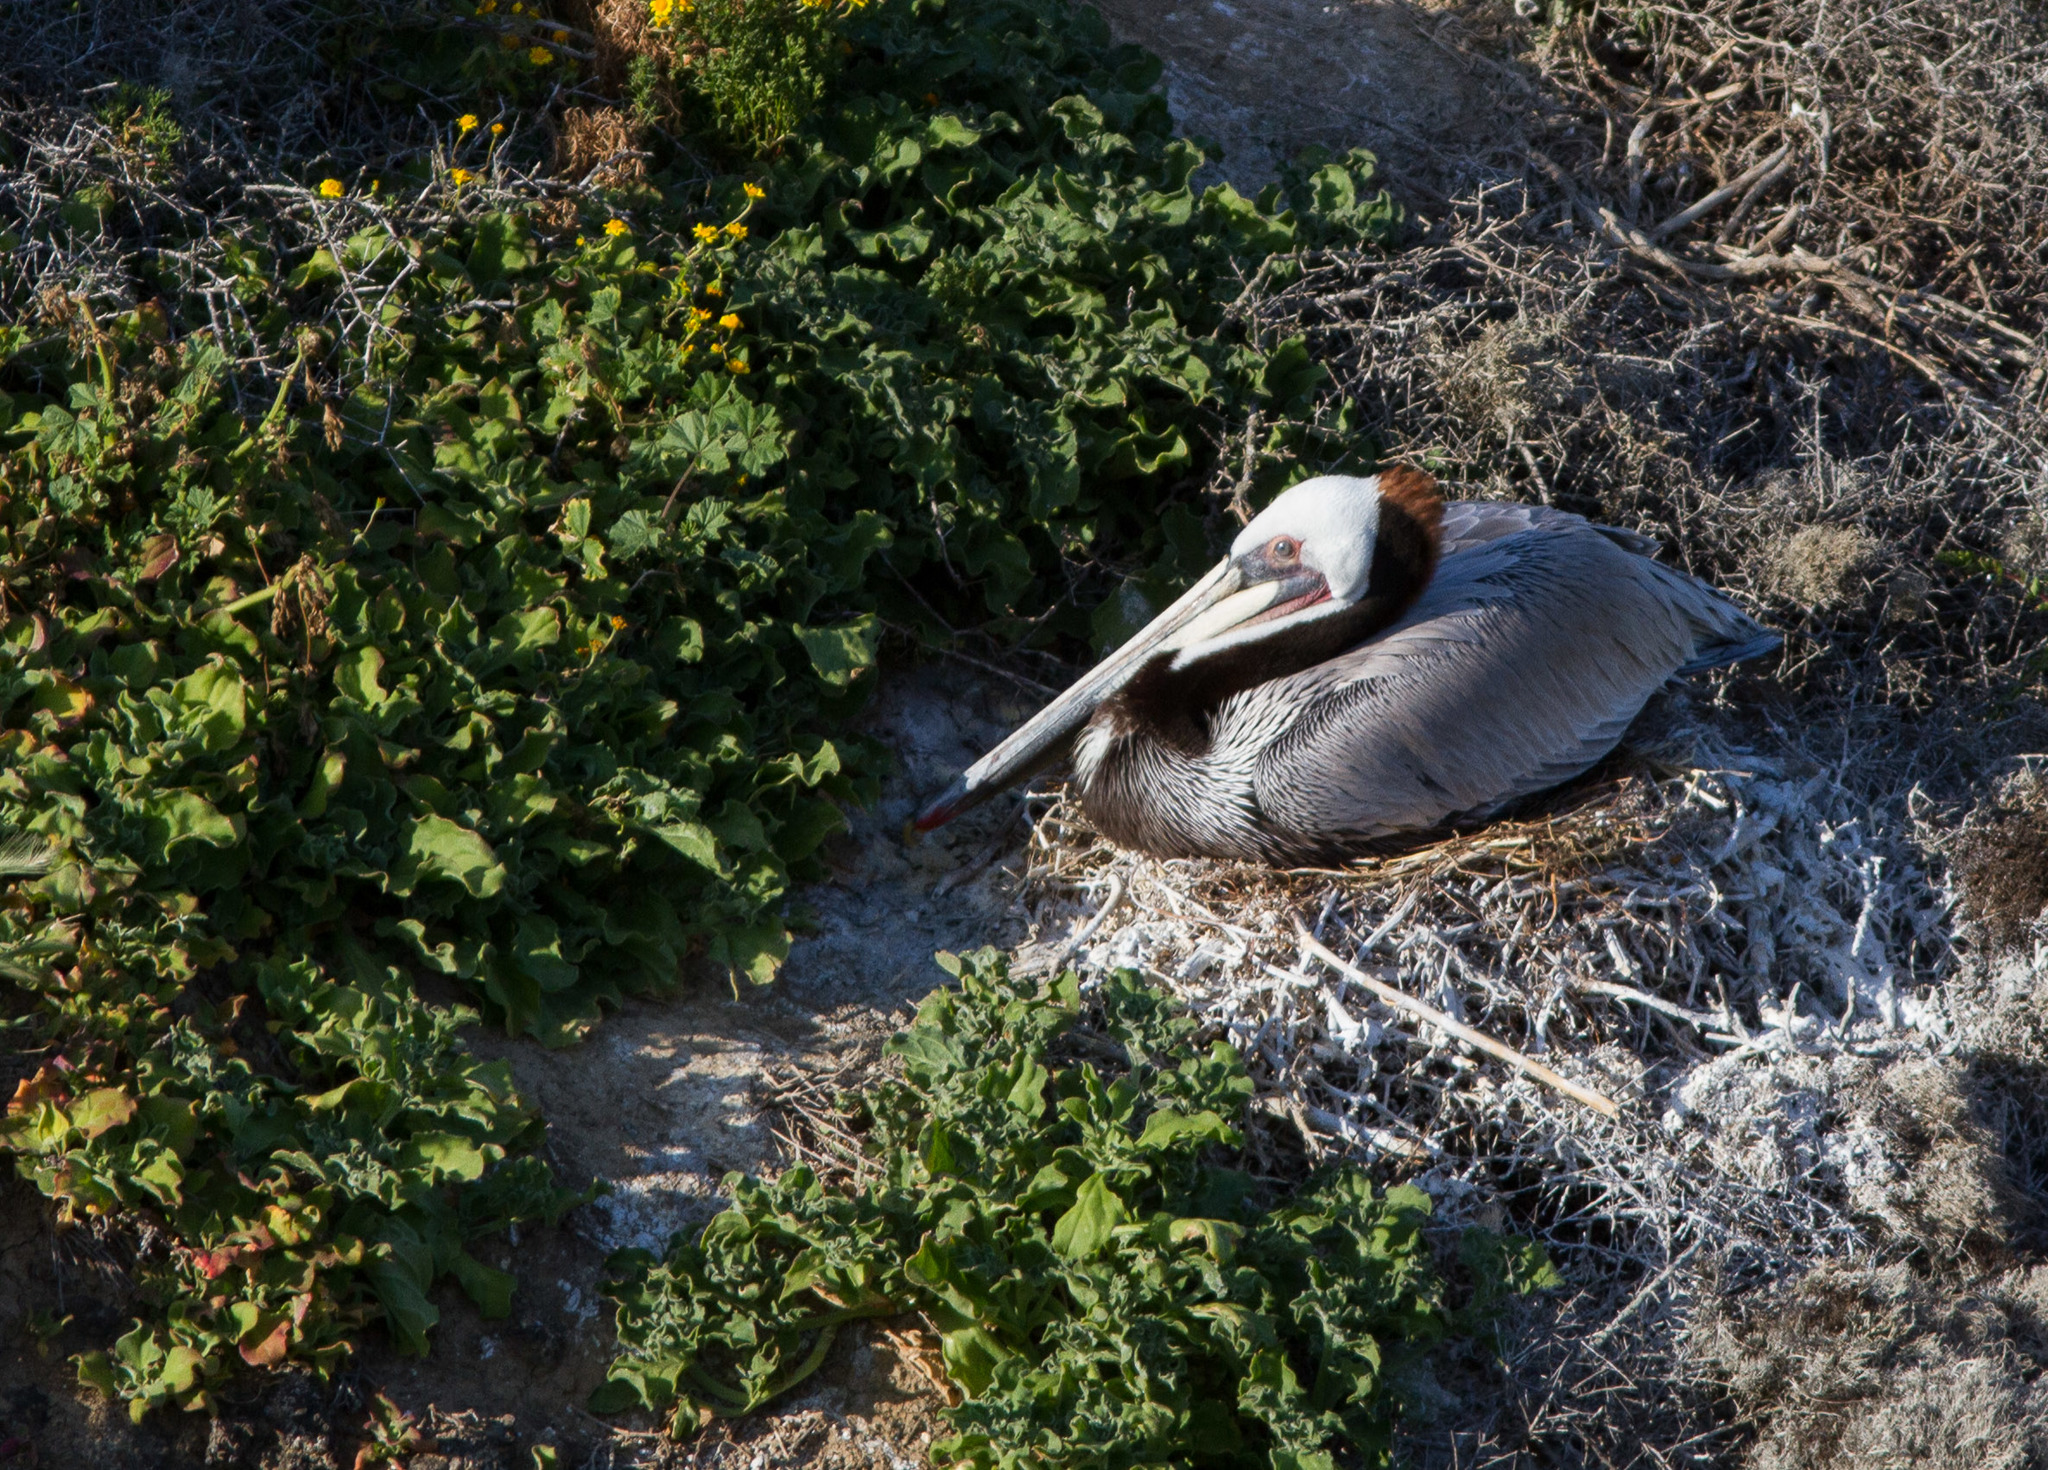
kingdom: Animalia
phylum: Chordata
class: Aves
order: Pelecaniformes
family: Pelecanidae
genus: Pelecanus
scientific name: Pelecanus occidentalis
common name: Brown pelican
